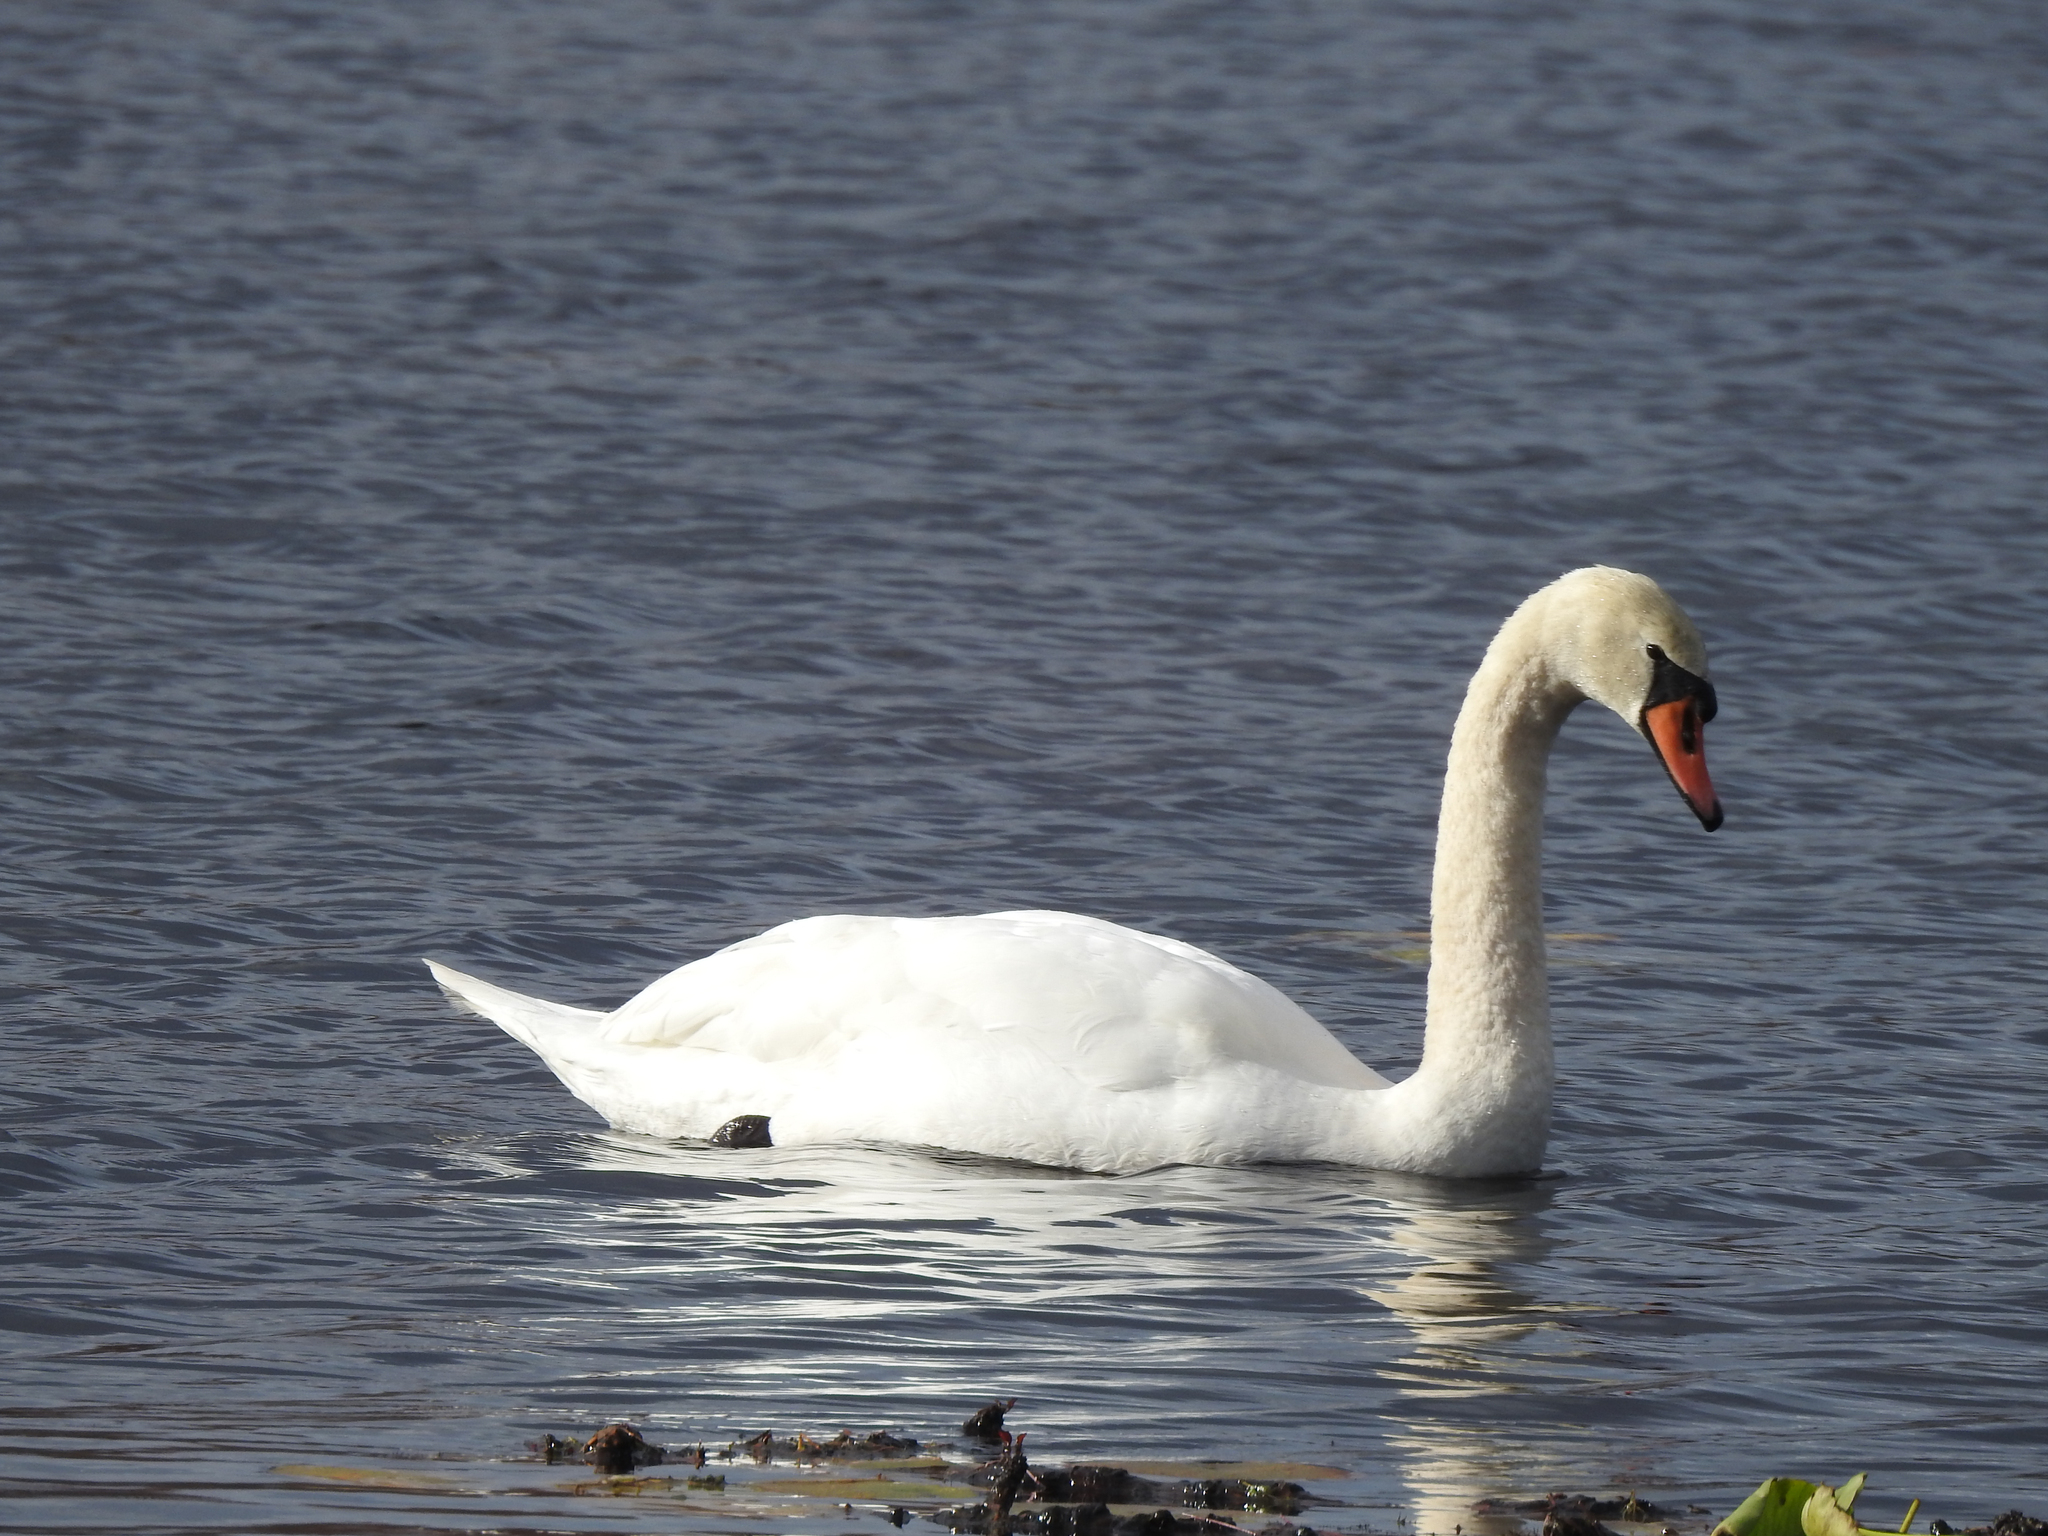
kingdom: Animalia
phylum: Chordata
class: Aves
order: Anseriformes
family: Anatidae
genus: Cygnus
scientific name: Cygnus olor
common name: Mute swan
